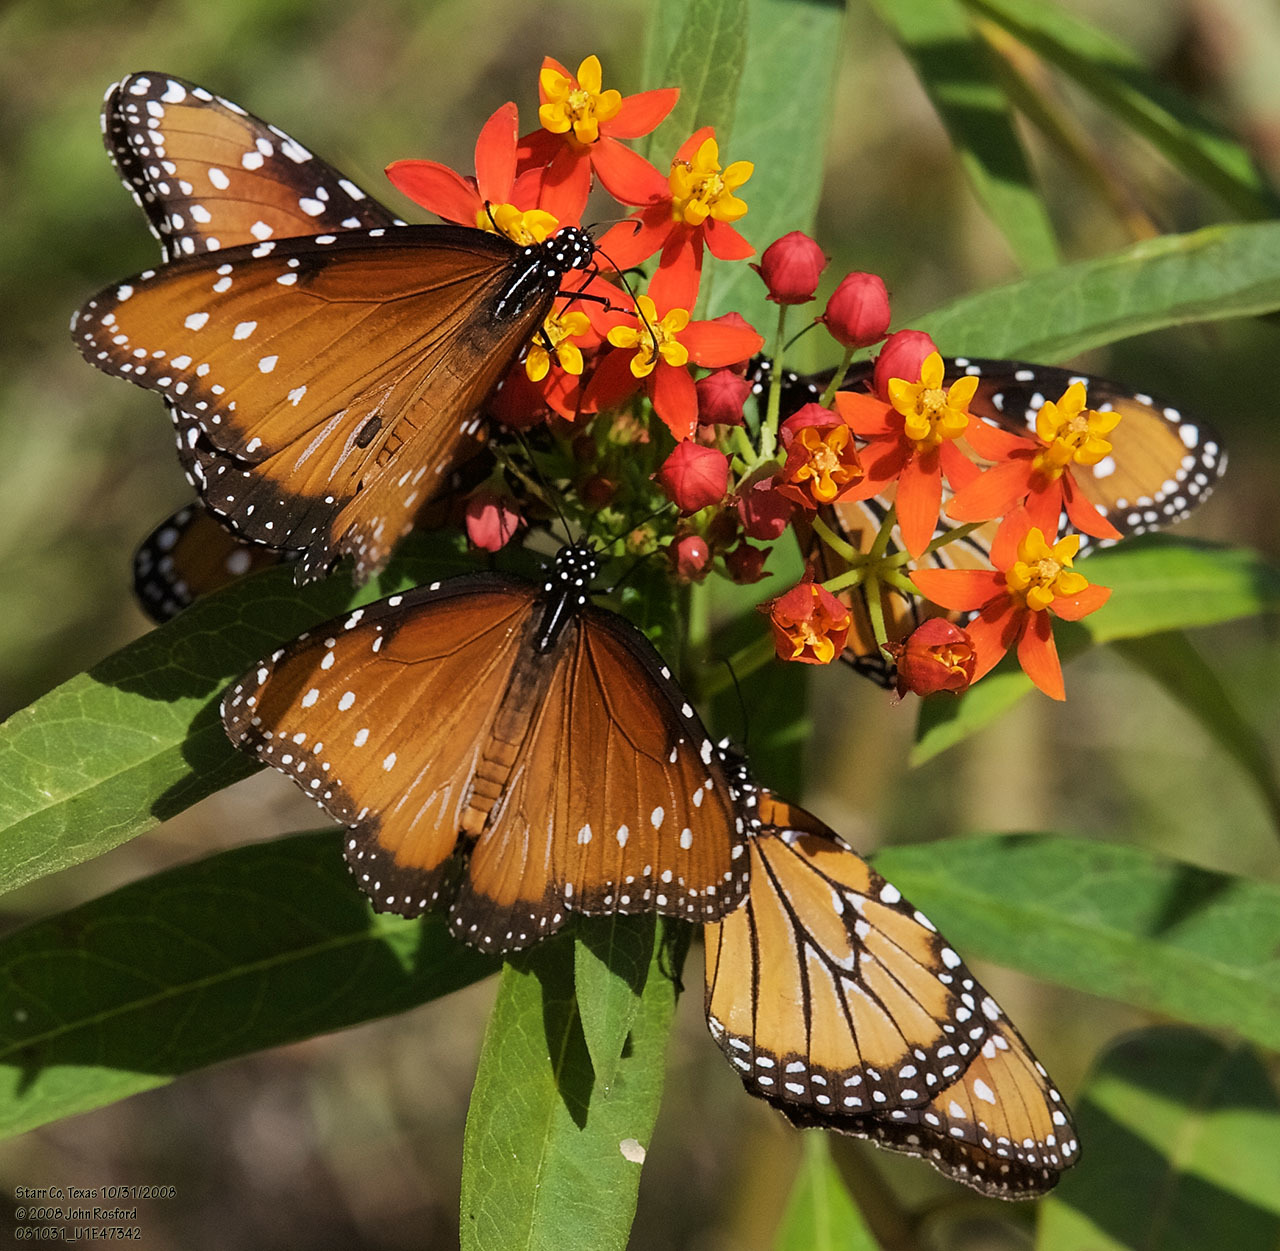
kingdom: Animalia
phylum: Arthropoda
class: Insecta
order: Lepidoptera
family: Nymphalidae
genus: Danaus
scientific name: Danaus gilippus
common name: Queen
